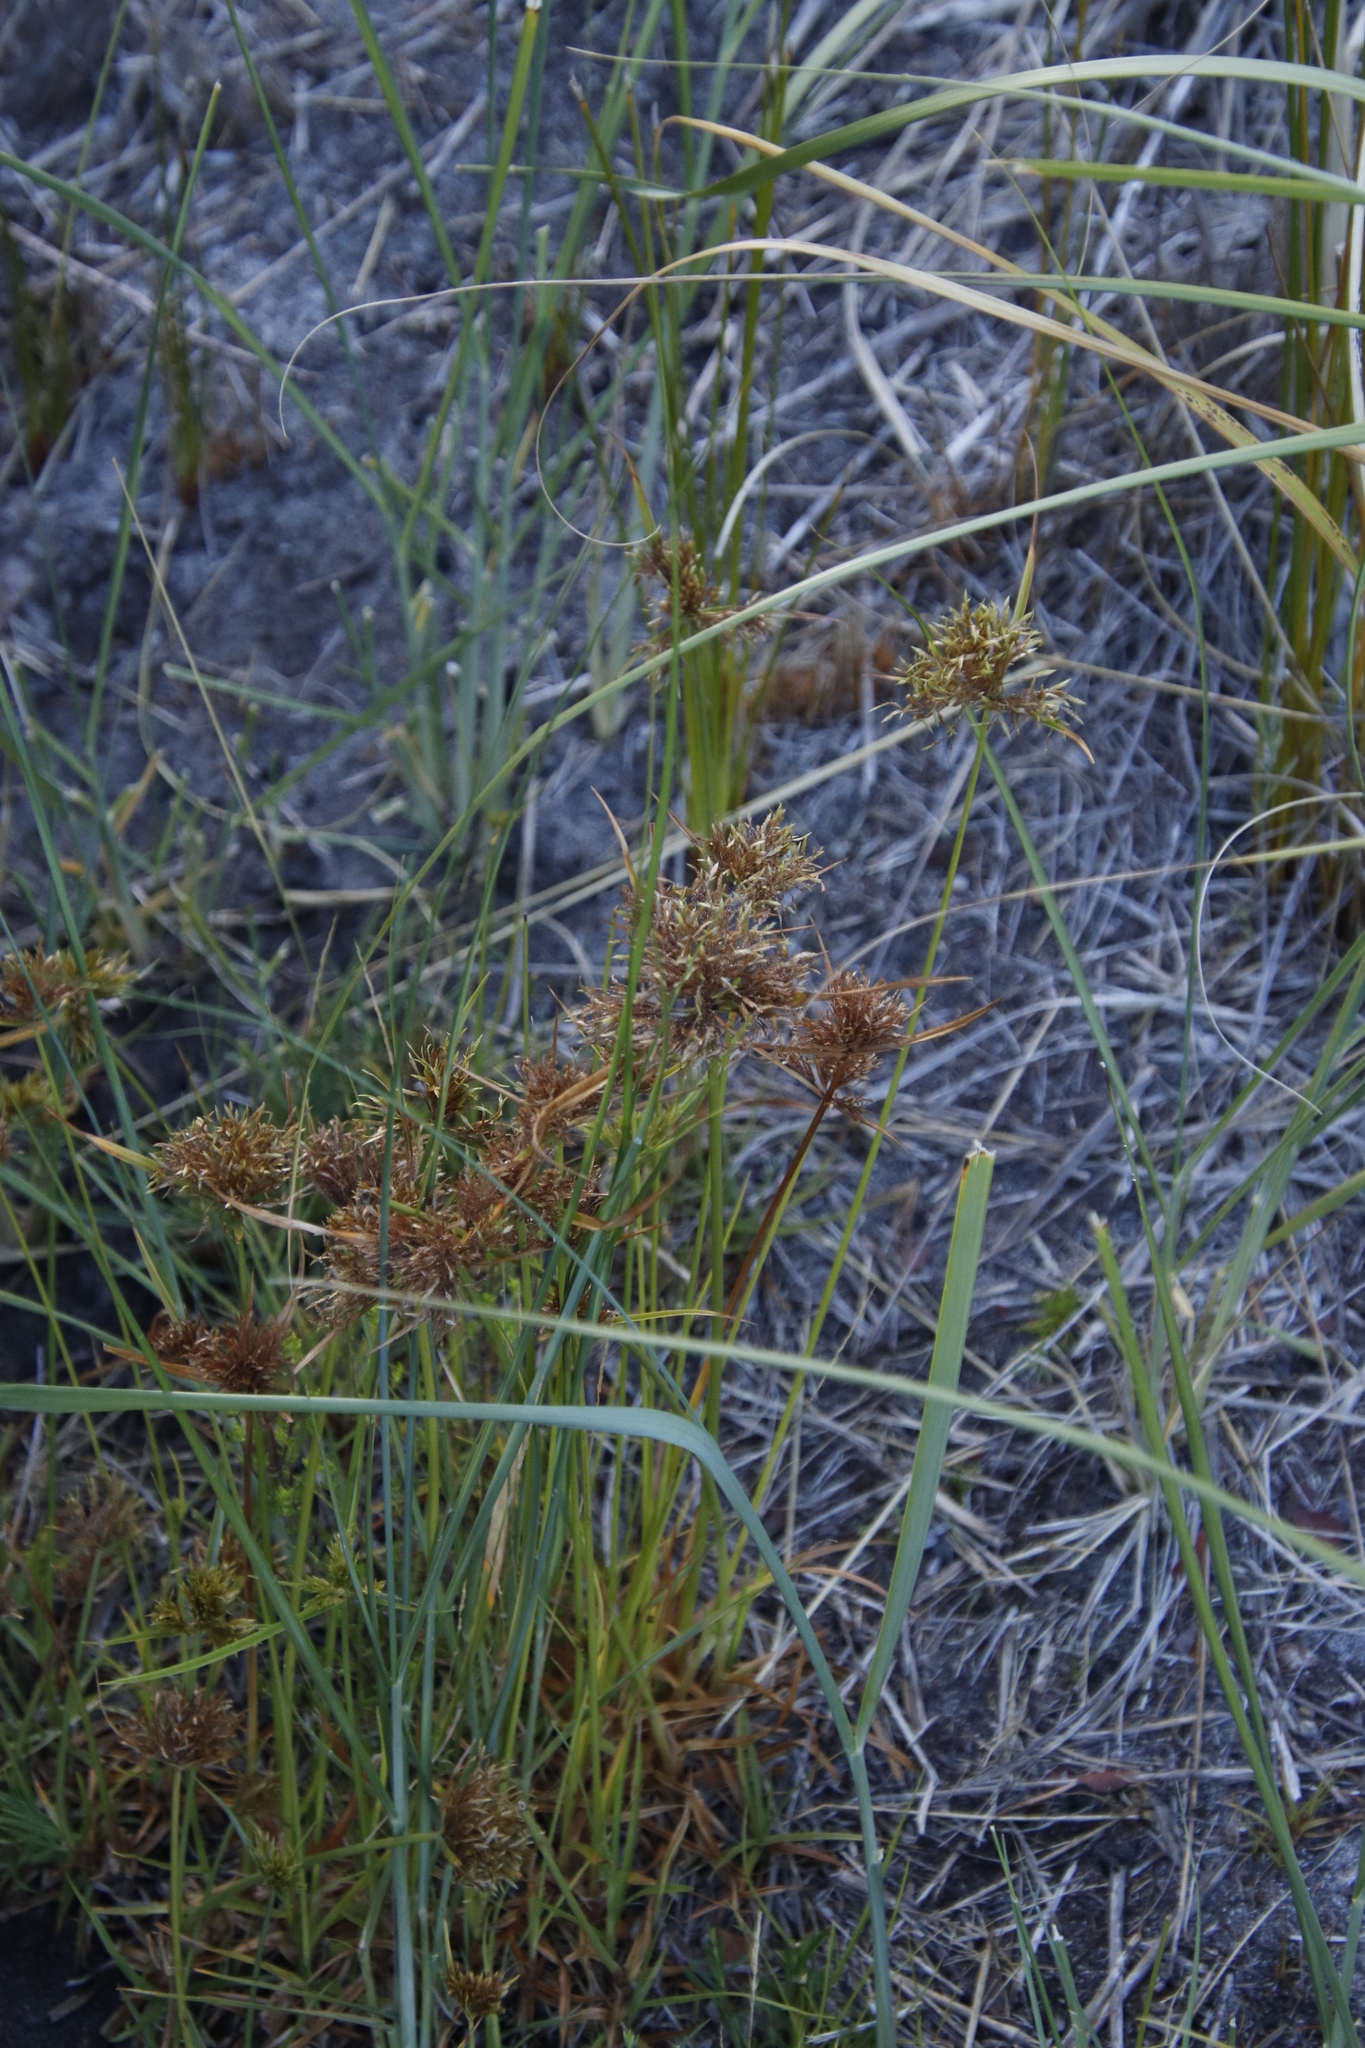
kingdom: Plantae
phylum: Tracheophyta
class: Liliopsida
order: Poales
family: Cyperaceae
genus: Cyperus
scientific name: Cyperus polystachyos
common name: Bunchy flat sedge
